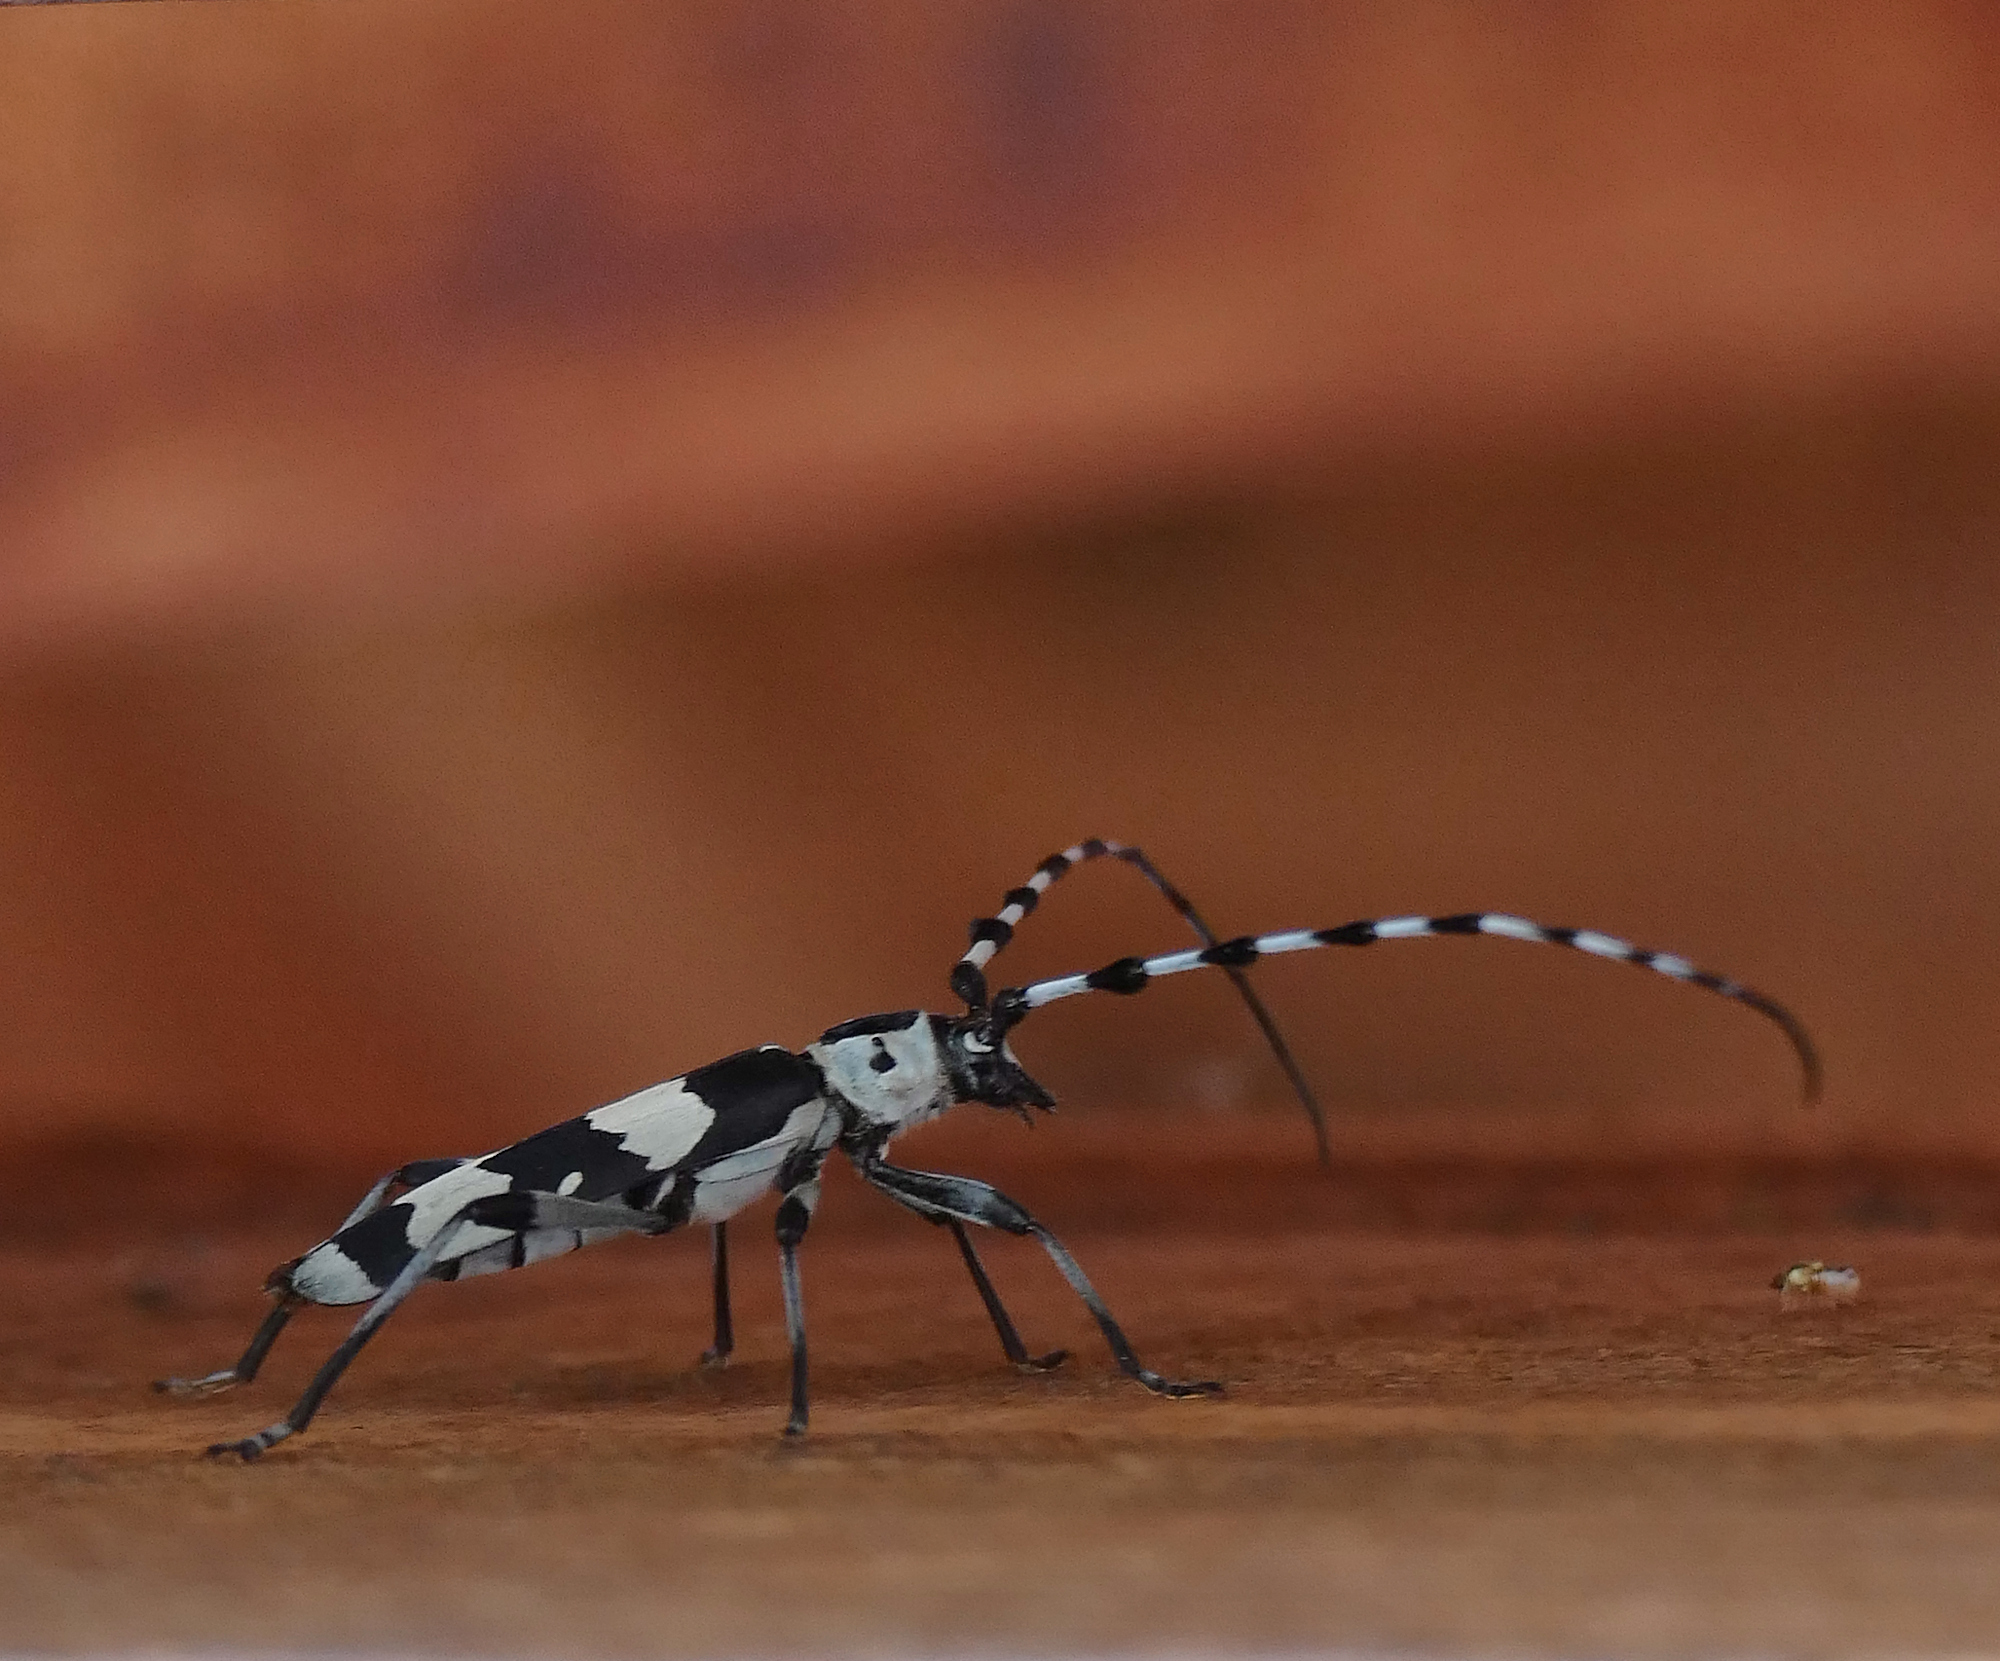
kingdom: Animalia
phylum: Arthropoda
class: Insecta
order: Coleoptera
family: Cerambycidae
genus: Rosalia
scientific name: Rosalia funebris
